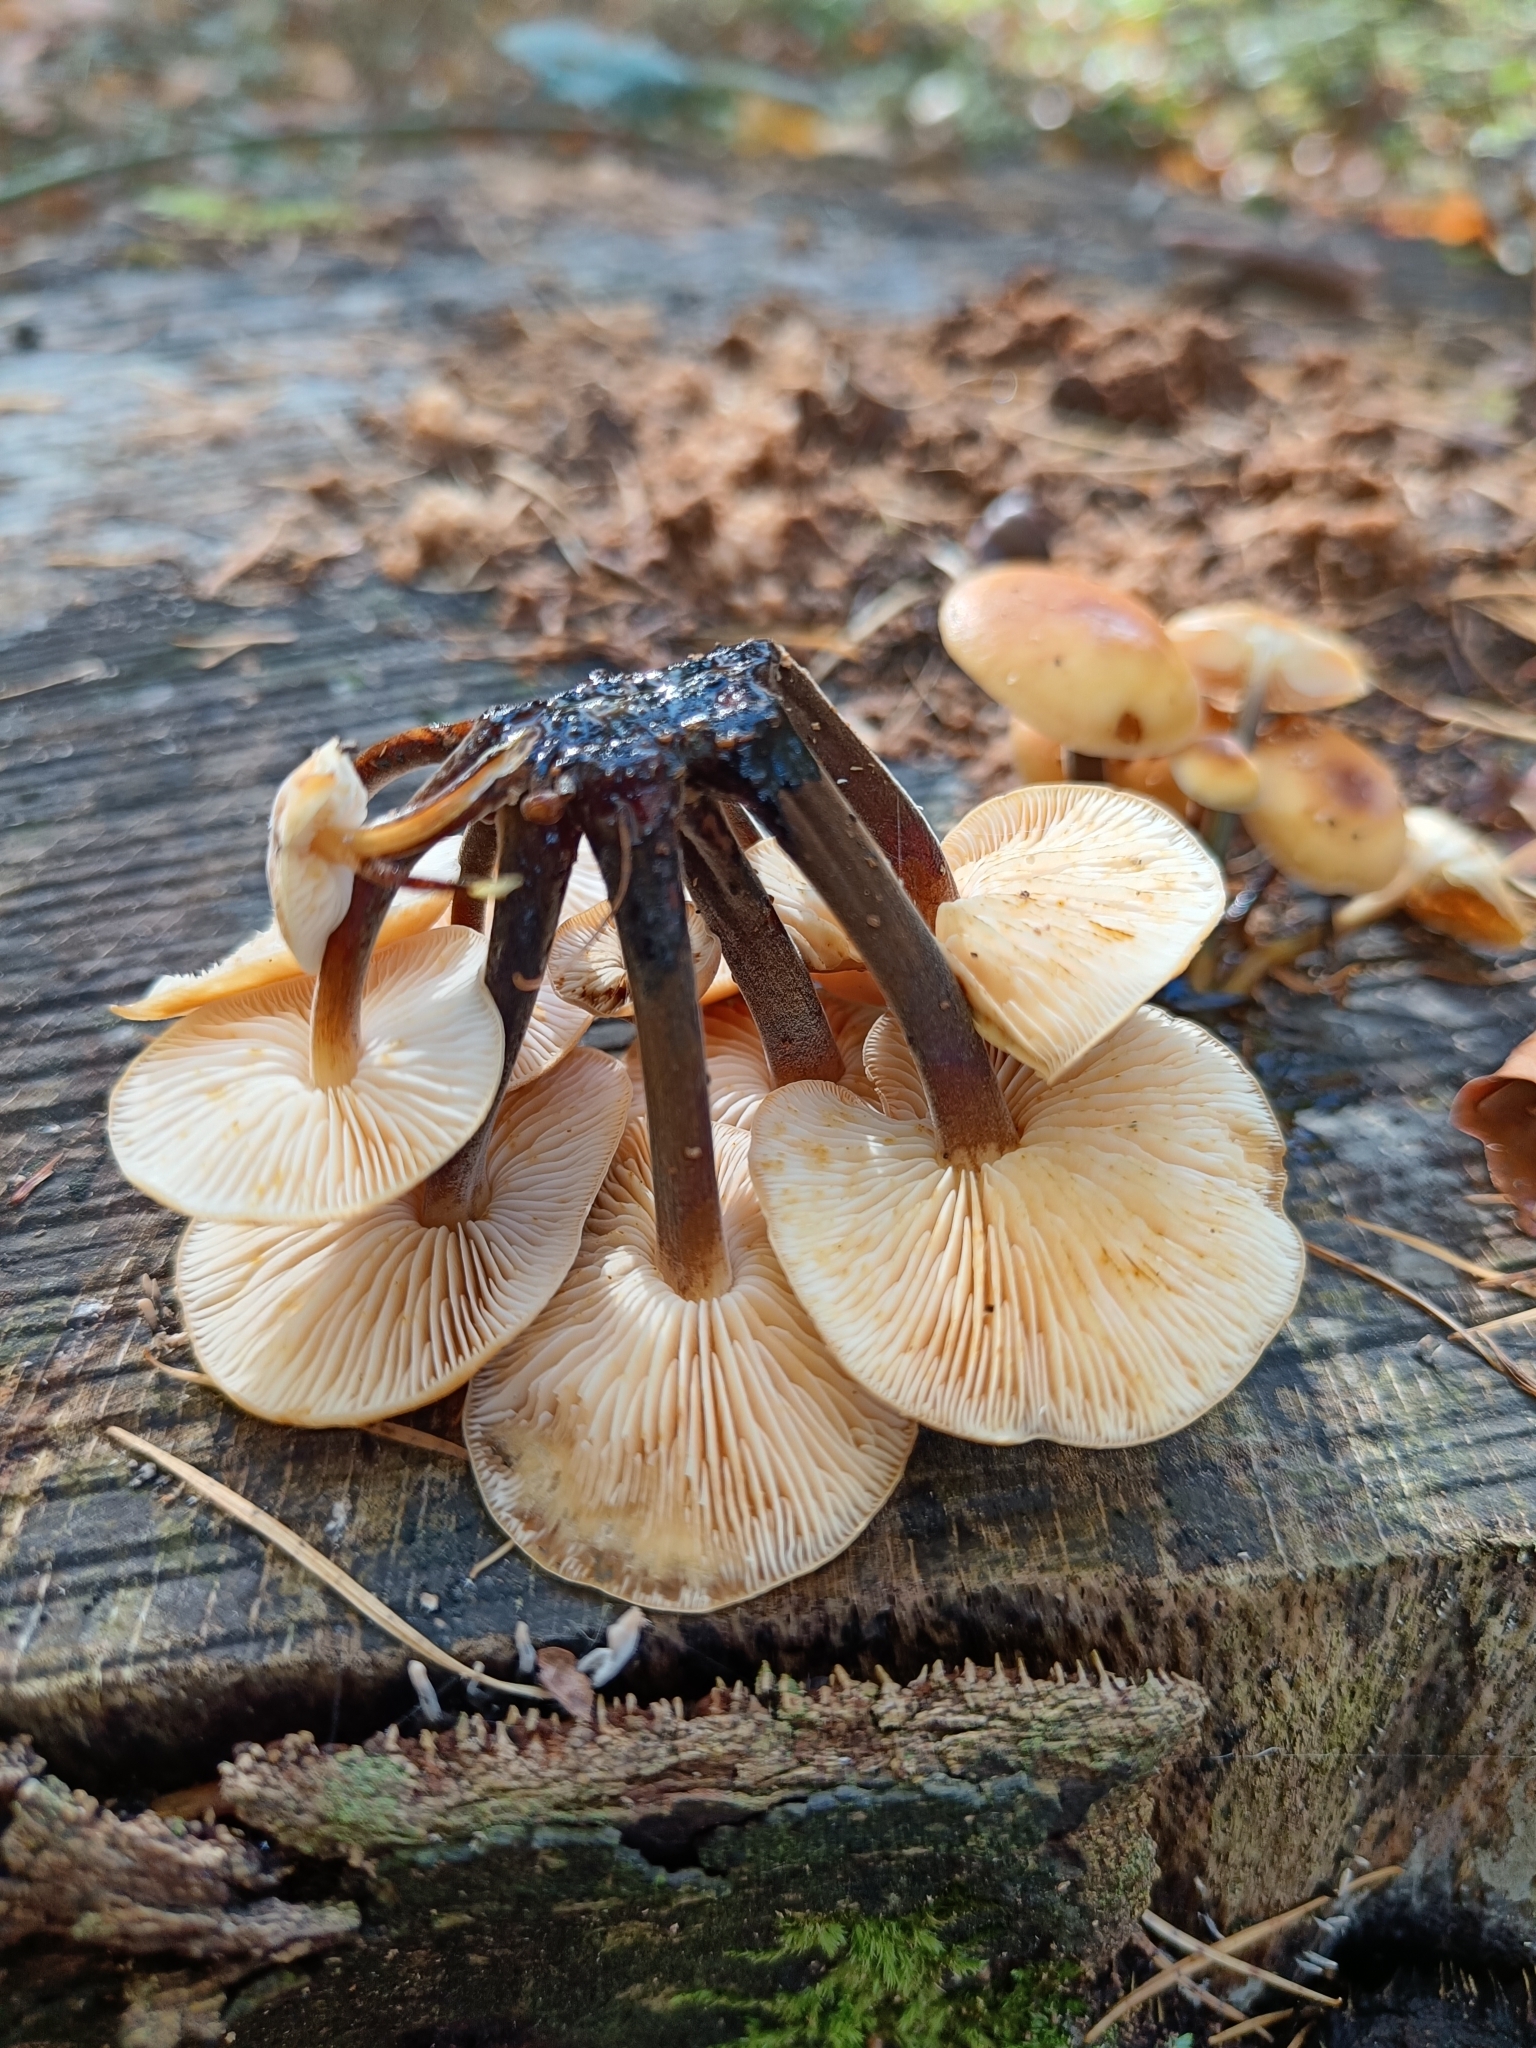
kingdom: Fungi
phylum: Basidiomycota
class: Agaricomycetes
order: Agaricales
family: Physalacriaceae
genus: Flammulina
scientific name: Flammulina
